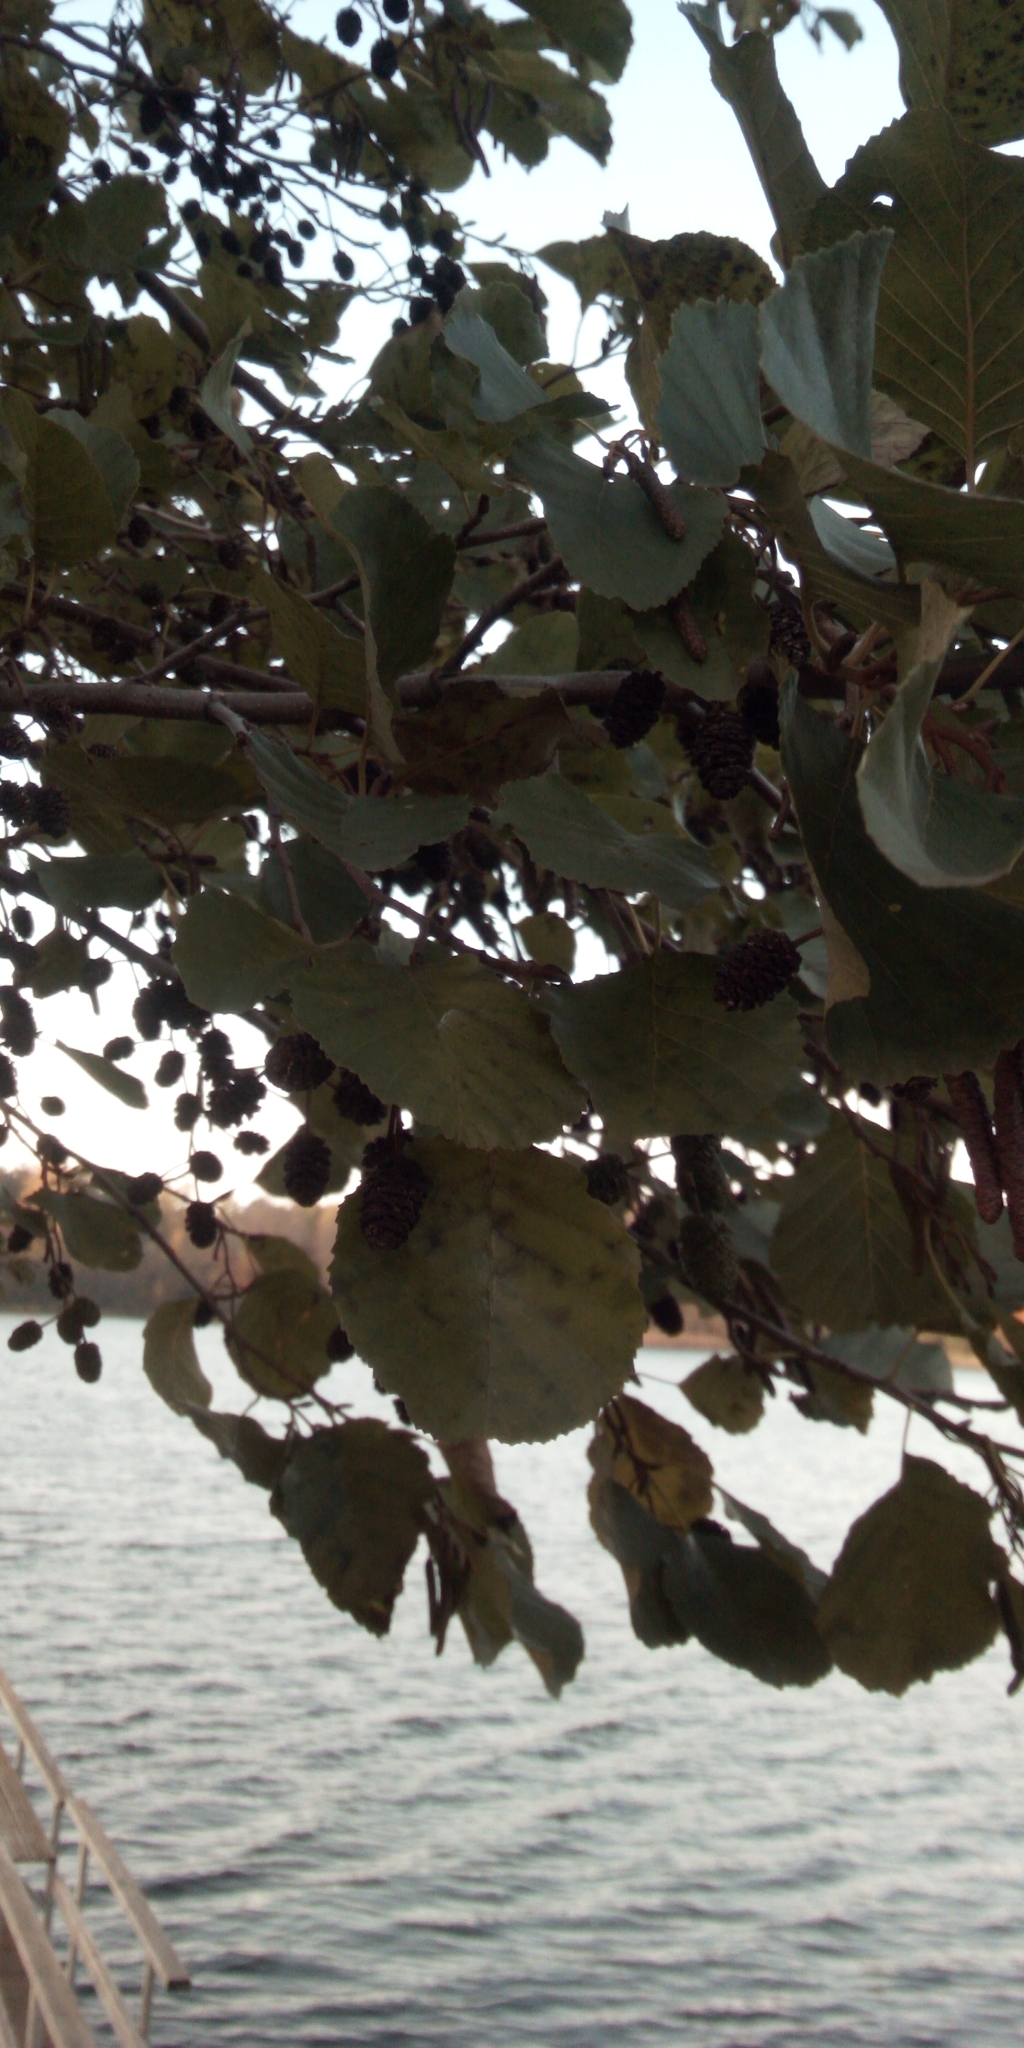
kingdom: Plantae
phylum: Tracheophyta
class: Magnoliopsida
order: Fagales
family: Betulaceae
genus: Alnus
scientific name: Alnus glutinosa
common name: Black alder
